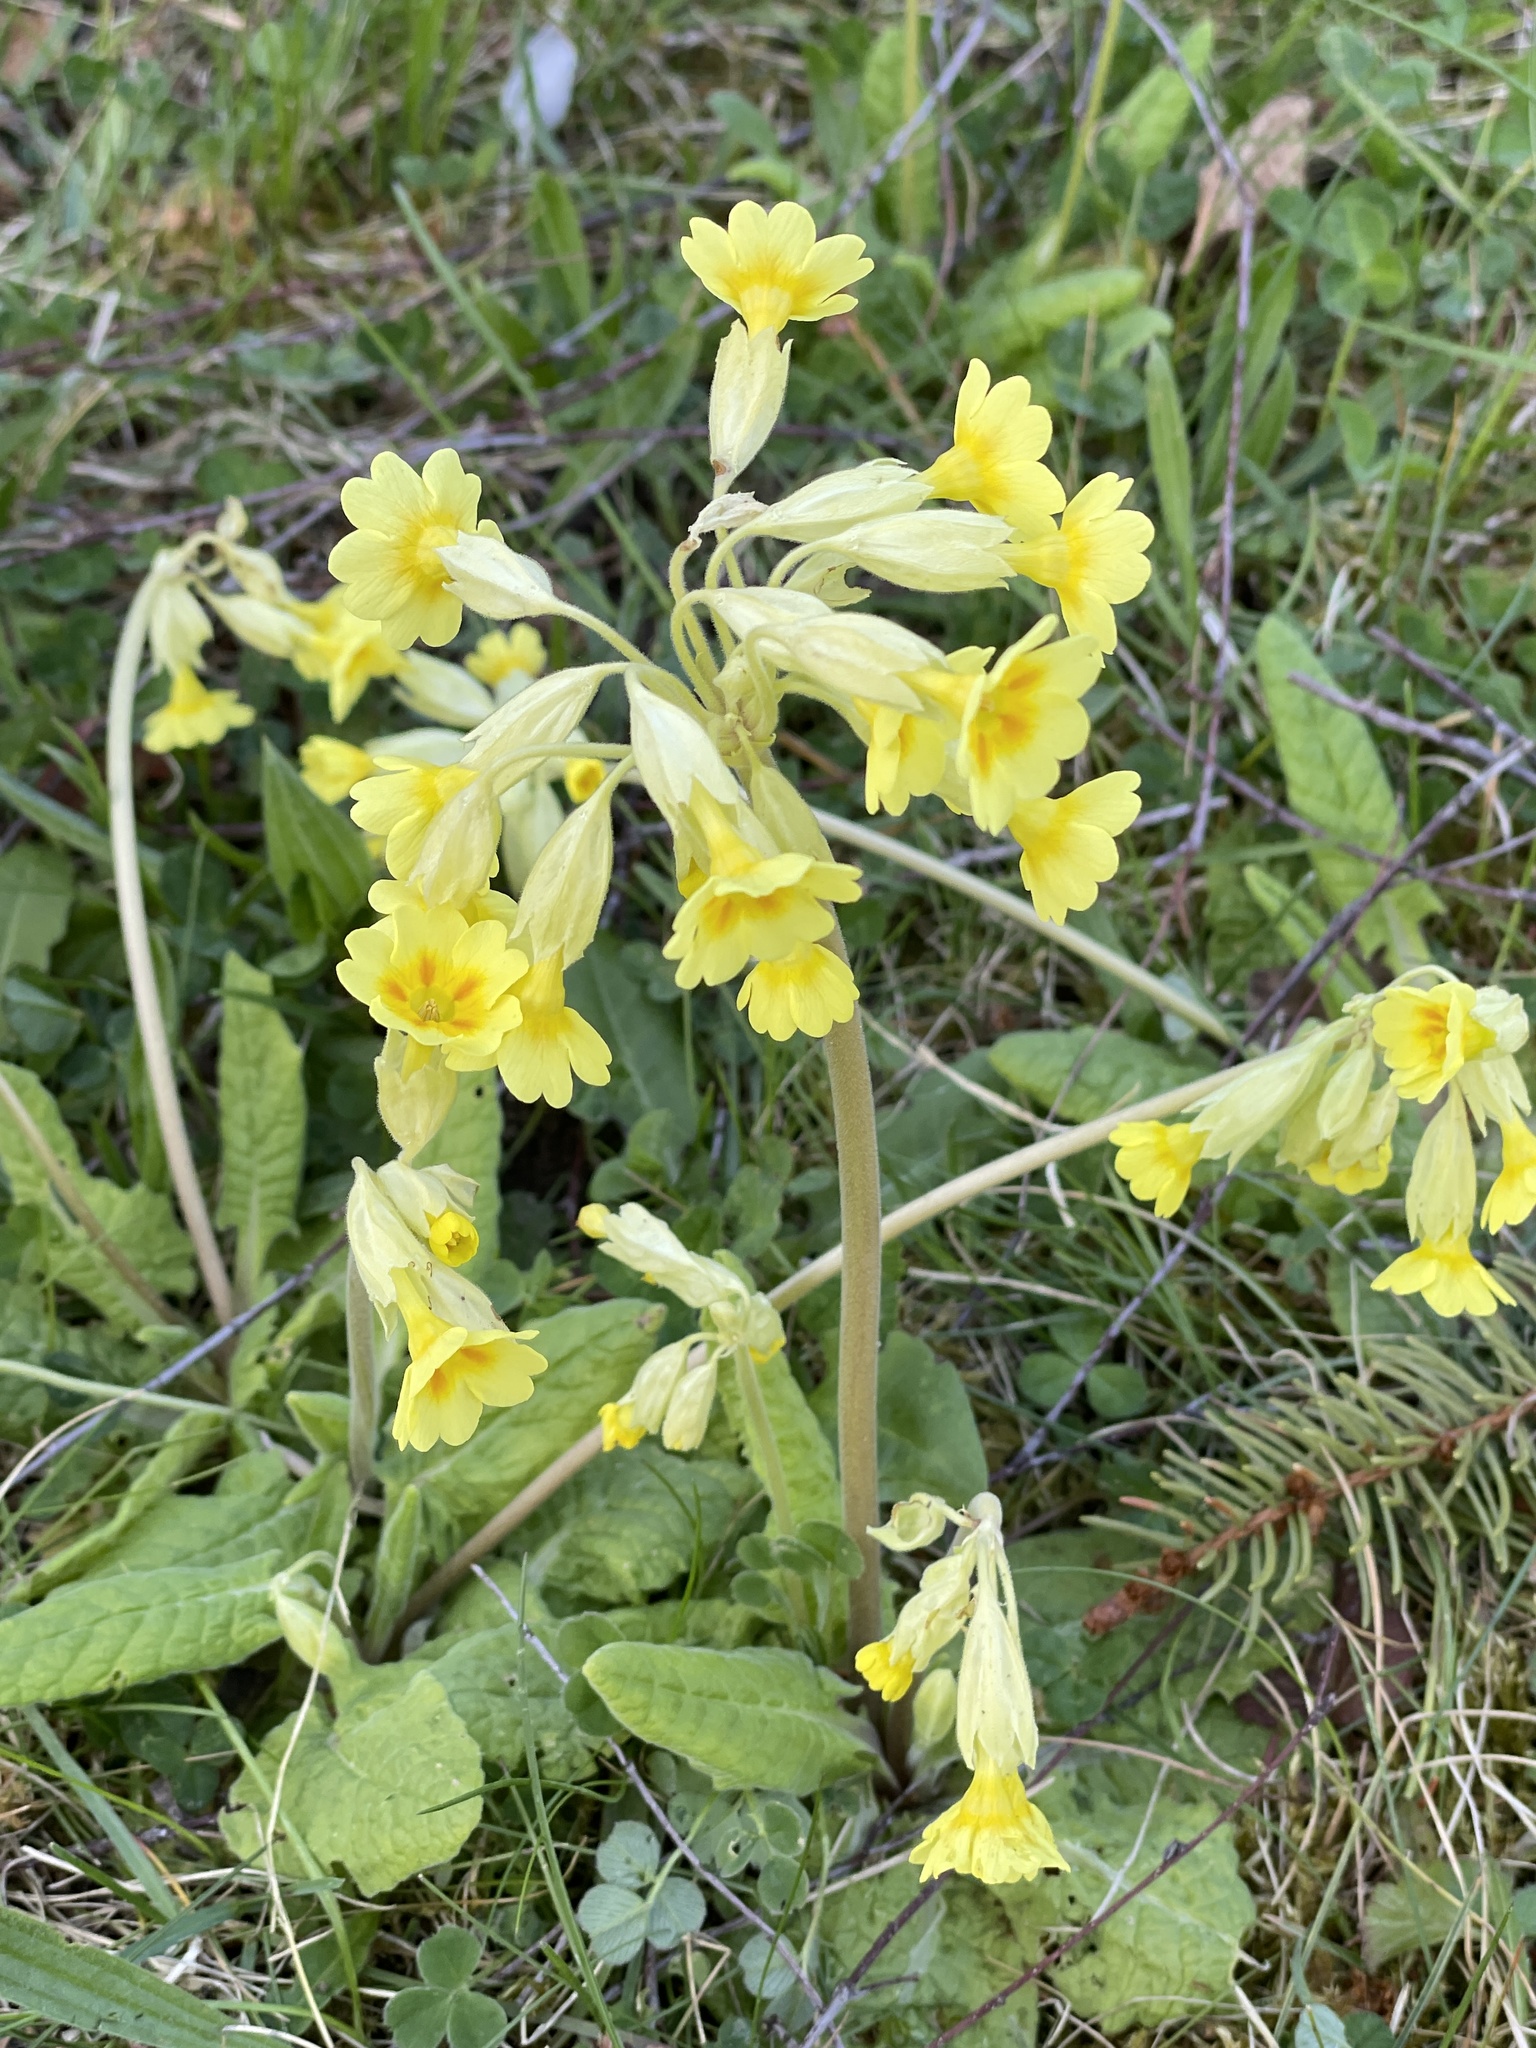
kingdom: Plantae
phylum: Tracheophyta
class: Magnoliopsida
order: Ericales
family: Primulaceae
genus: Primula
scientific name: Primula veris
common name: Cowslip
